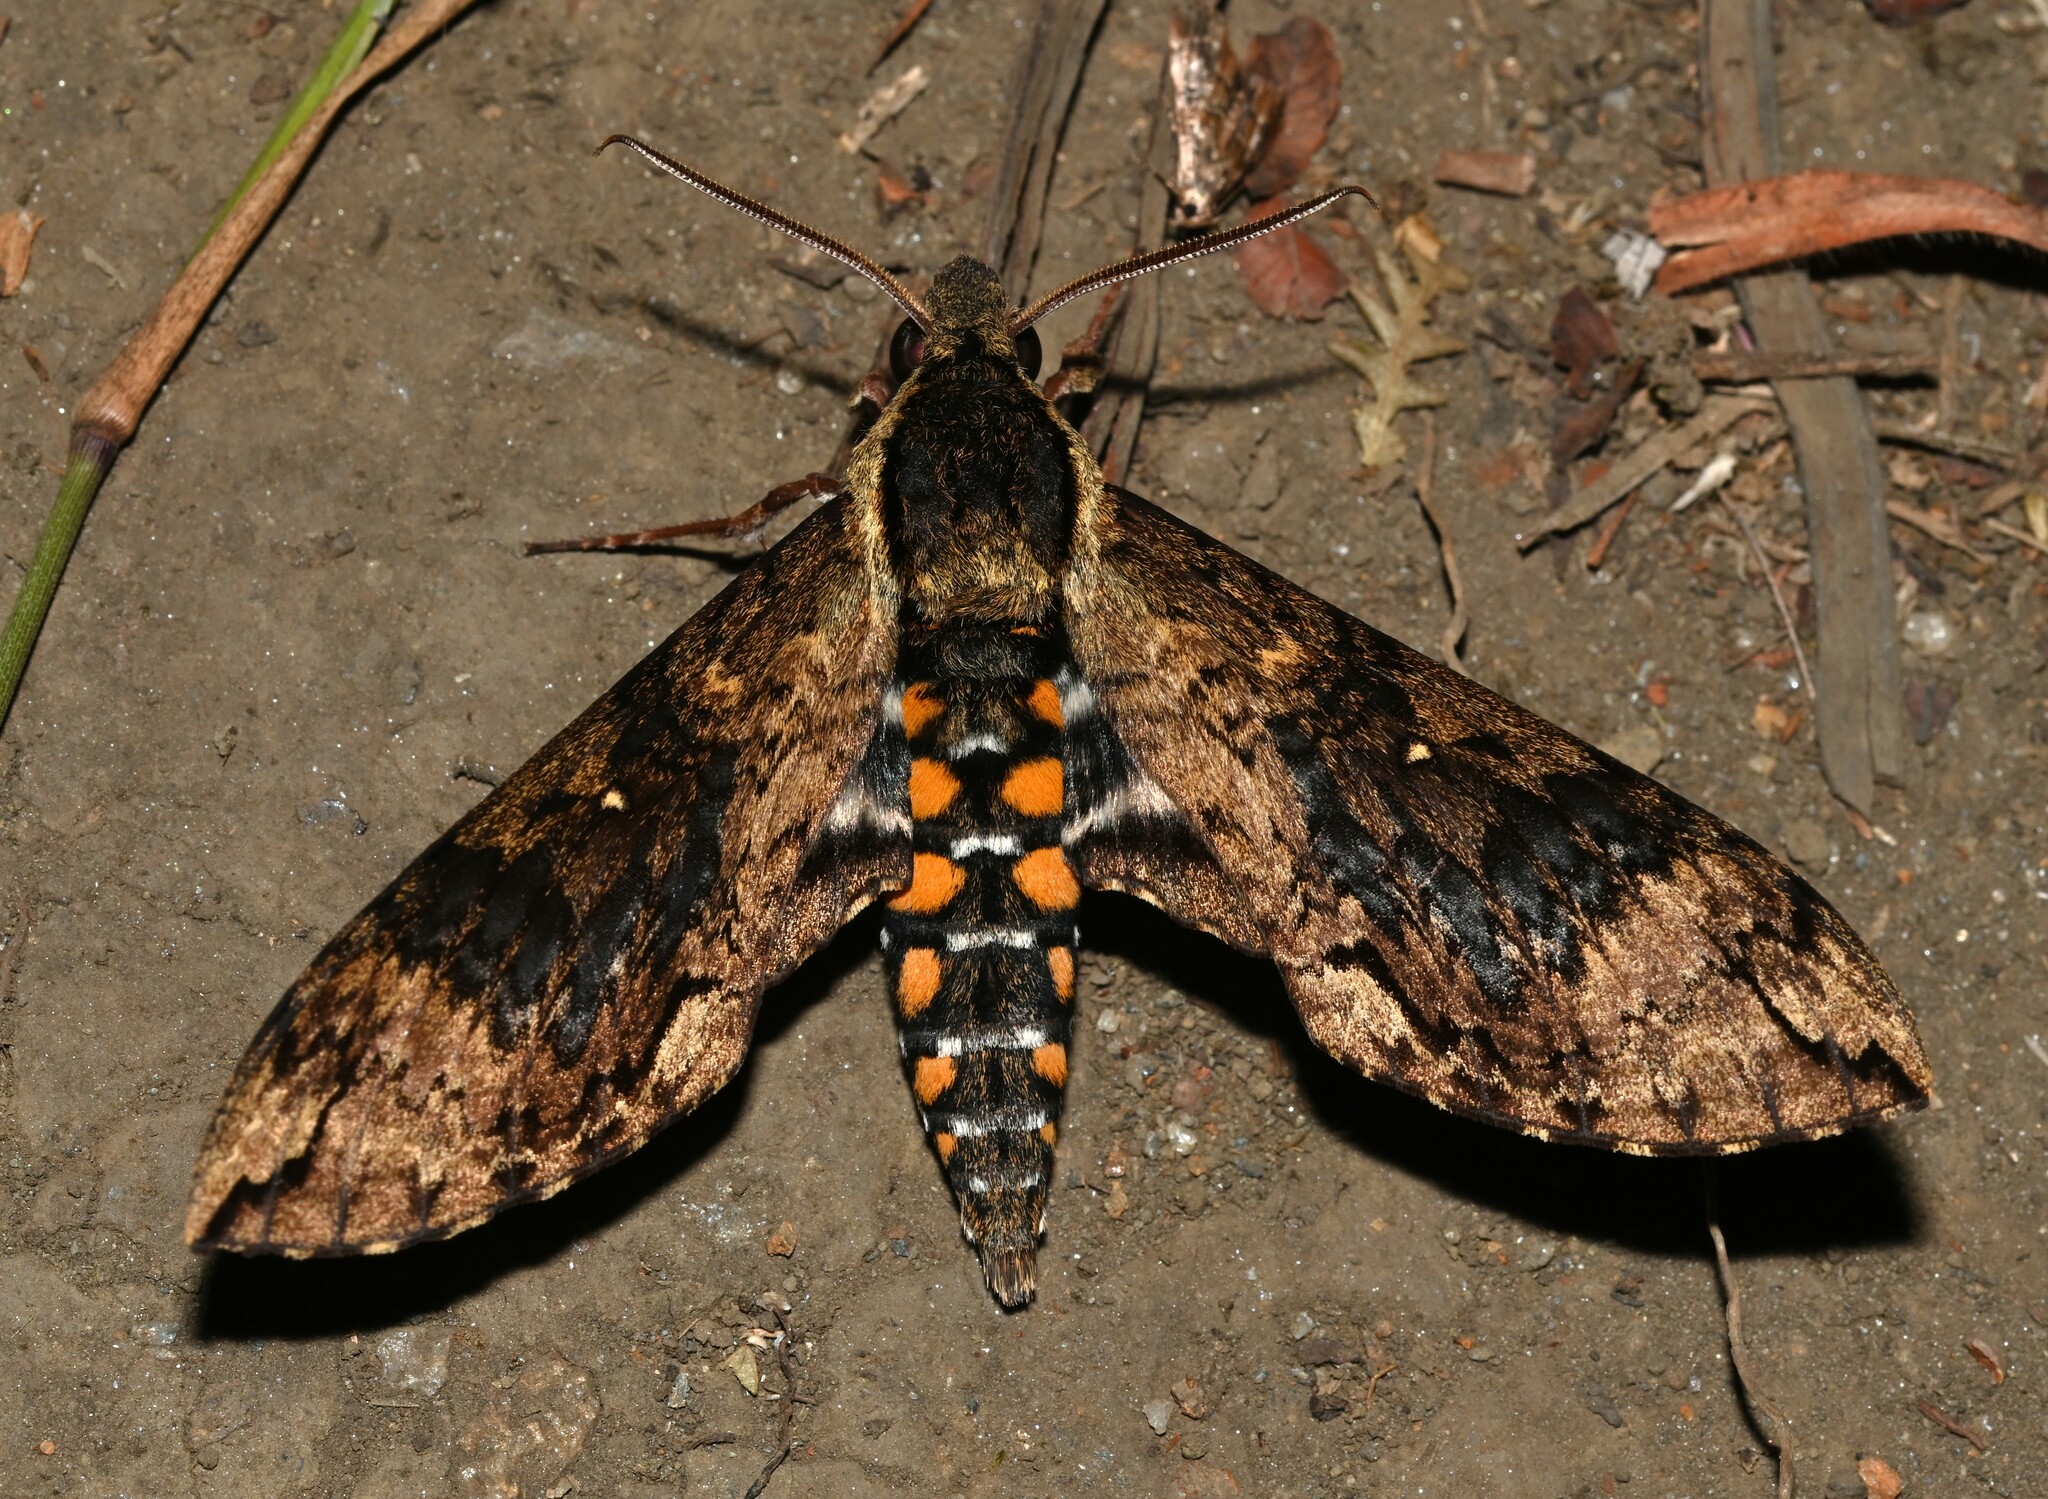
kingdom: Animalia
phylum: Arthropoda
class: Insecta
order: Lepidoptera
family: Sphingidae
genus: Manduca
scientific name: Manduca pellenia
